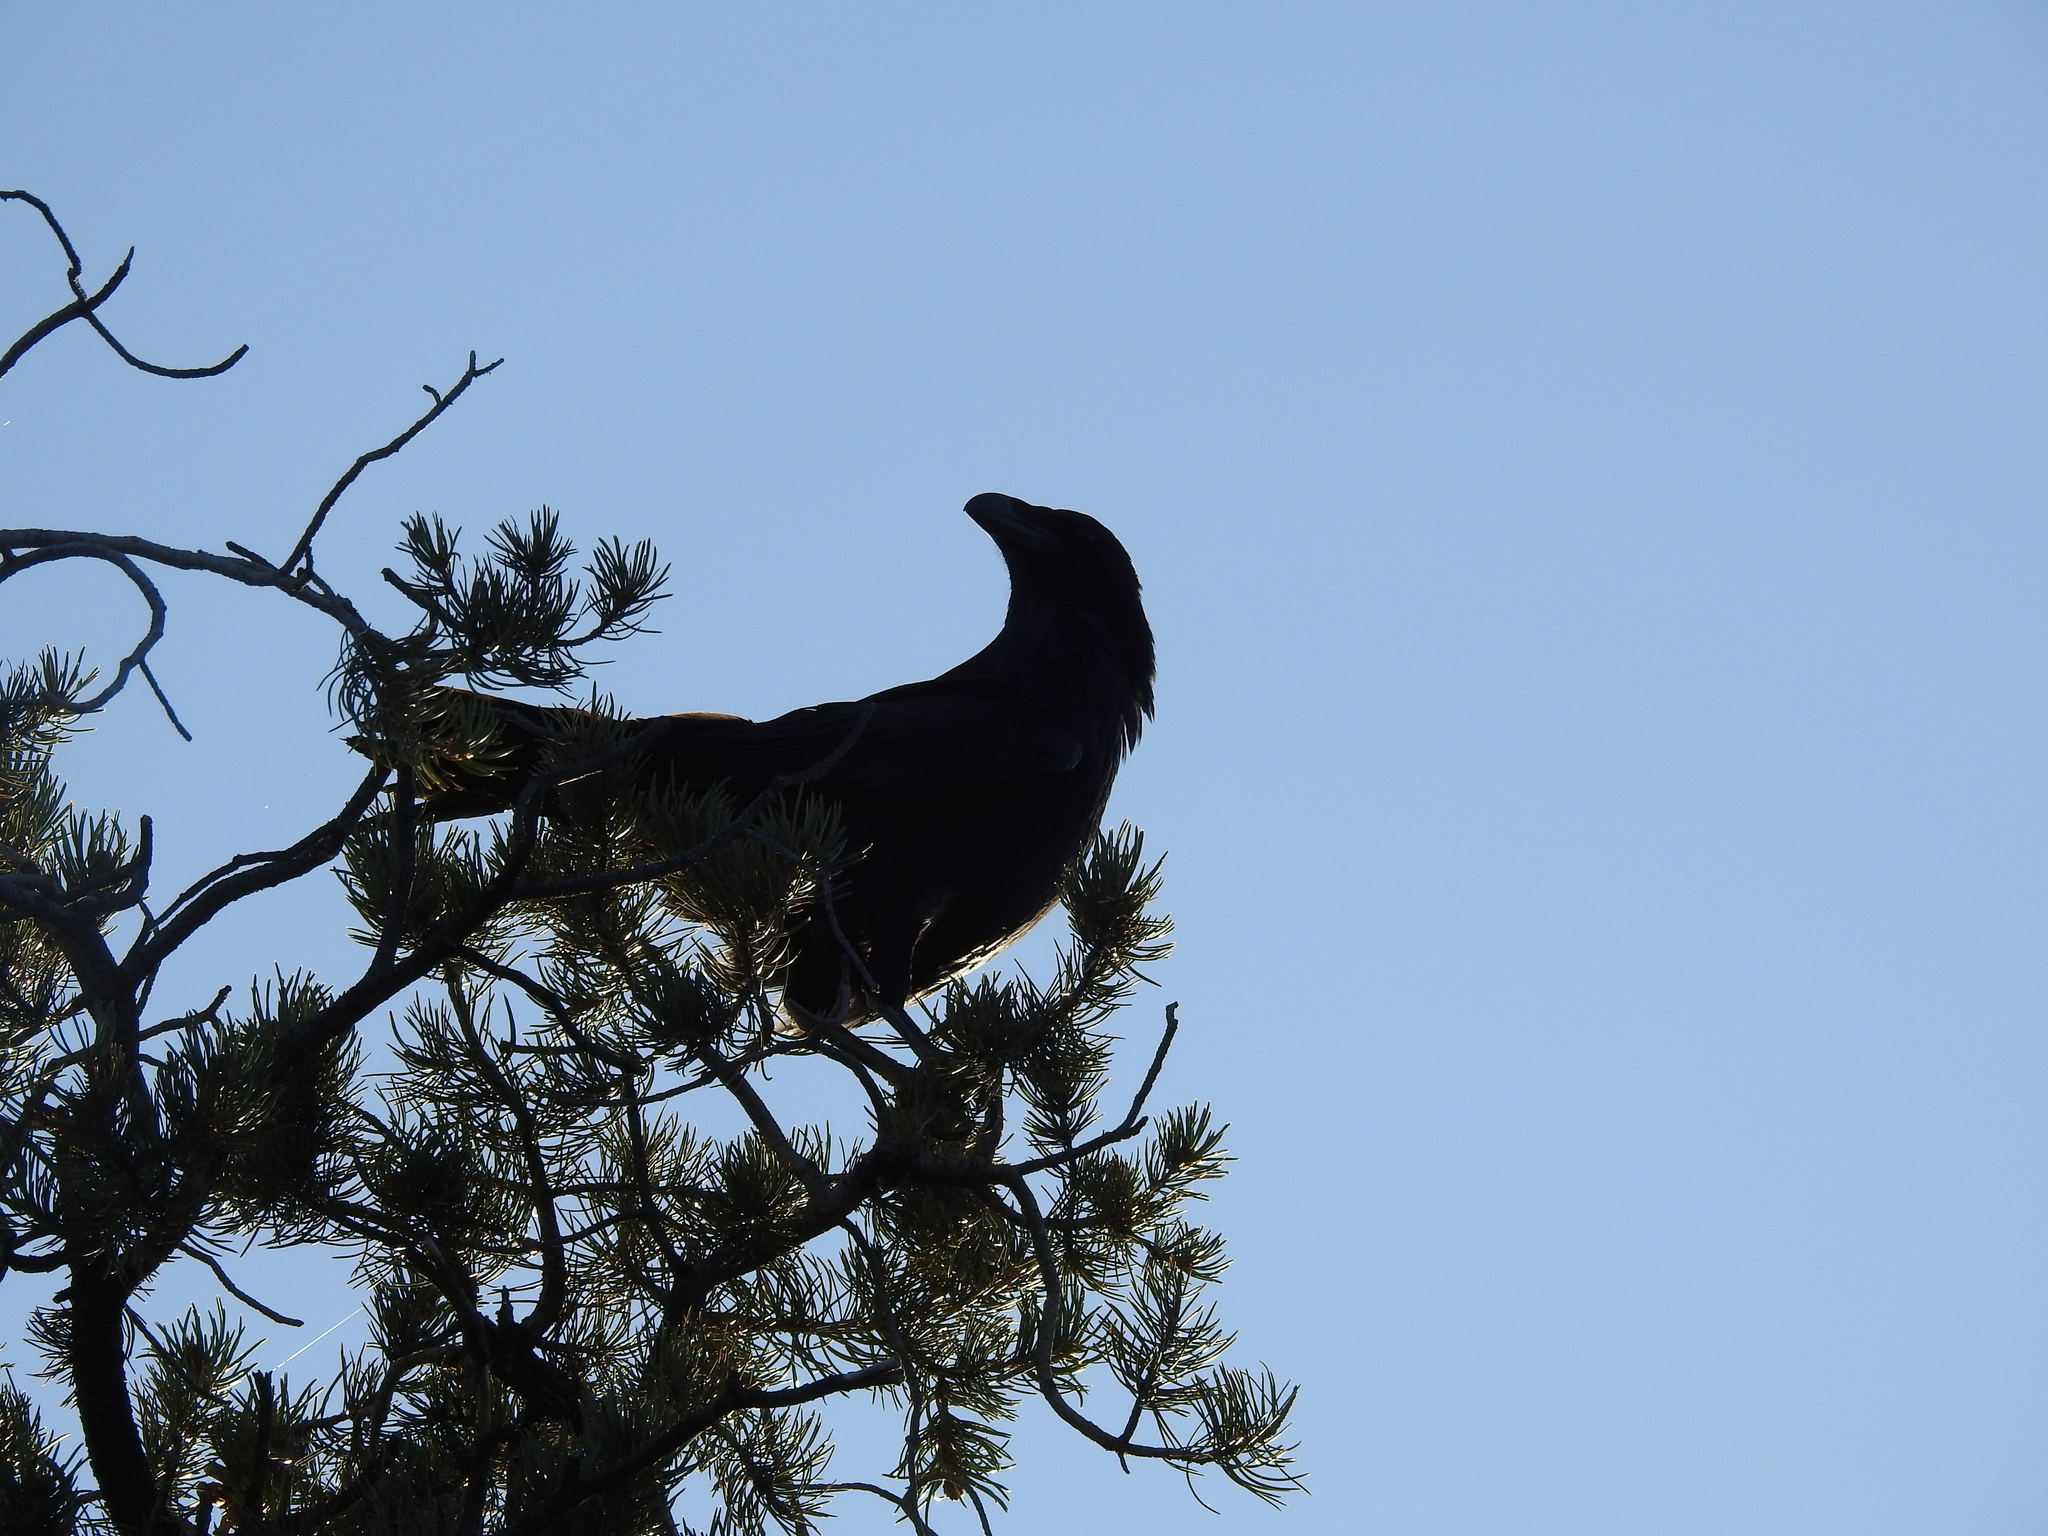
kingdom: Animalia
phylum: Chordata
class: Aves
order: Passeriformes
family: Corvidae
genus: Corvus
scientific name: Corvus corax
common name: Common raven
